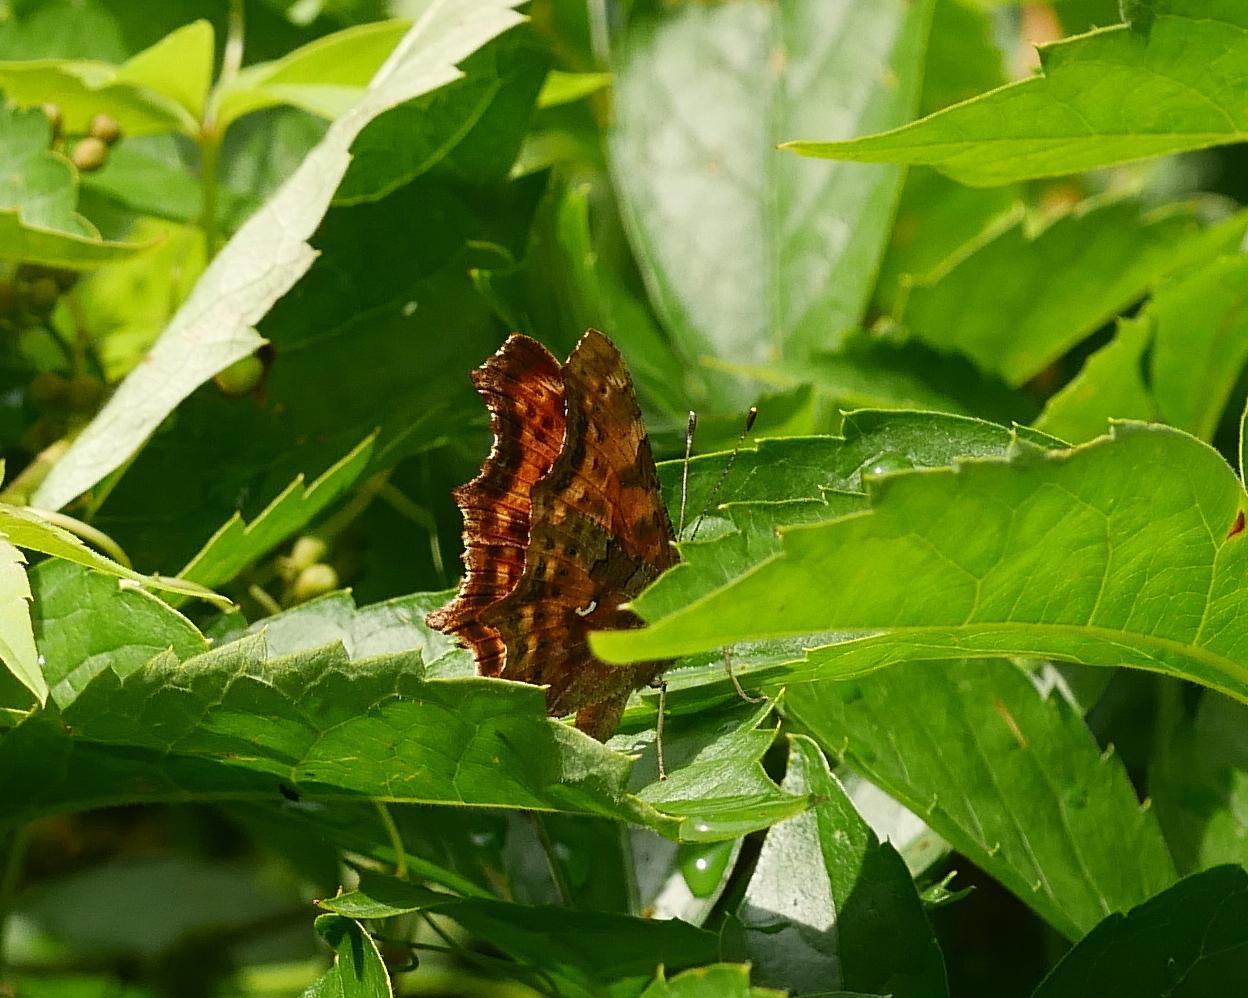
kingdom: Animalia
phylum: Arthropoda
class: Insecta
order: Lepidoptera
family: Nymphalidae
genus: Polygonia
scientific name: Polygonia c-album
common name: Comma
